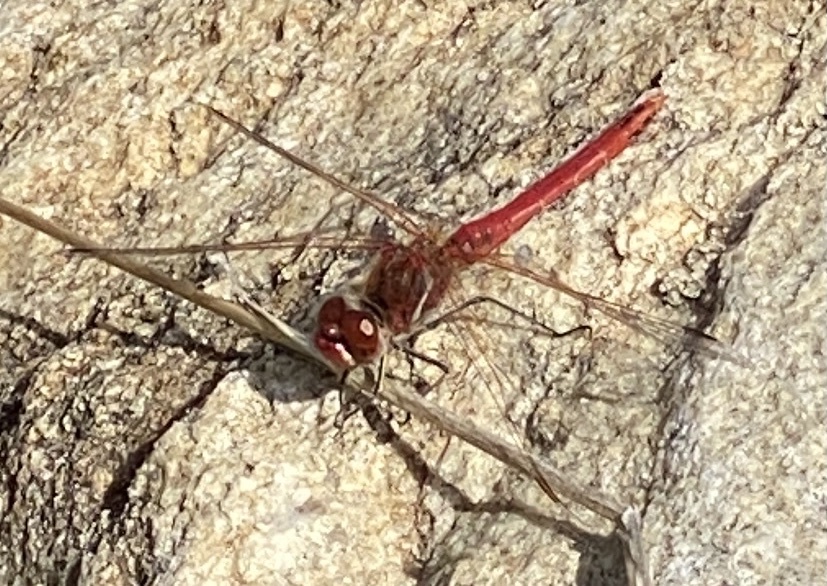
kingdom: Animalia
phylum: Arthropoda
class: Insecta
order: Odonata
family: Libellulidae
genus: Sympetrum
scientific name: Sympetrum fonscolombii
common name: Red-veined darter
